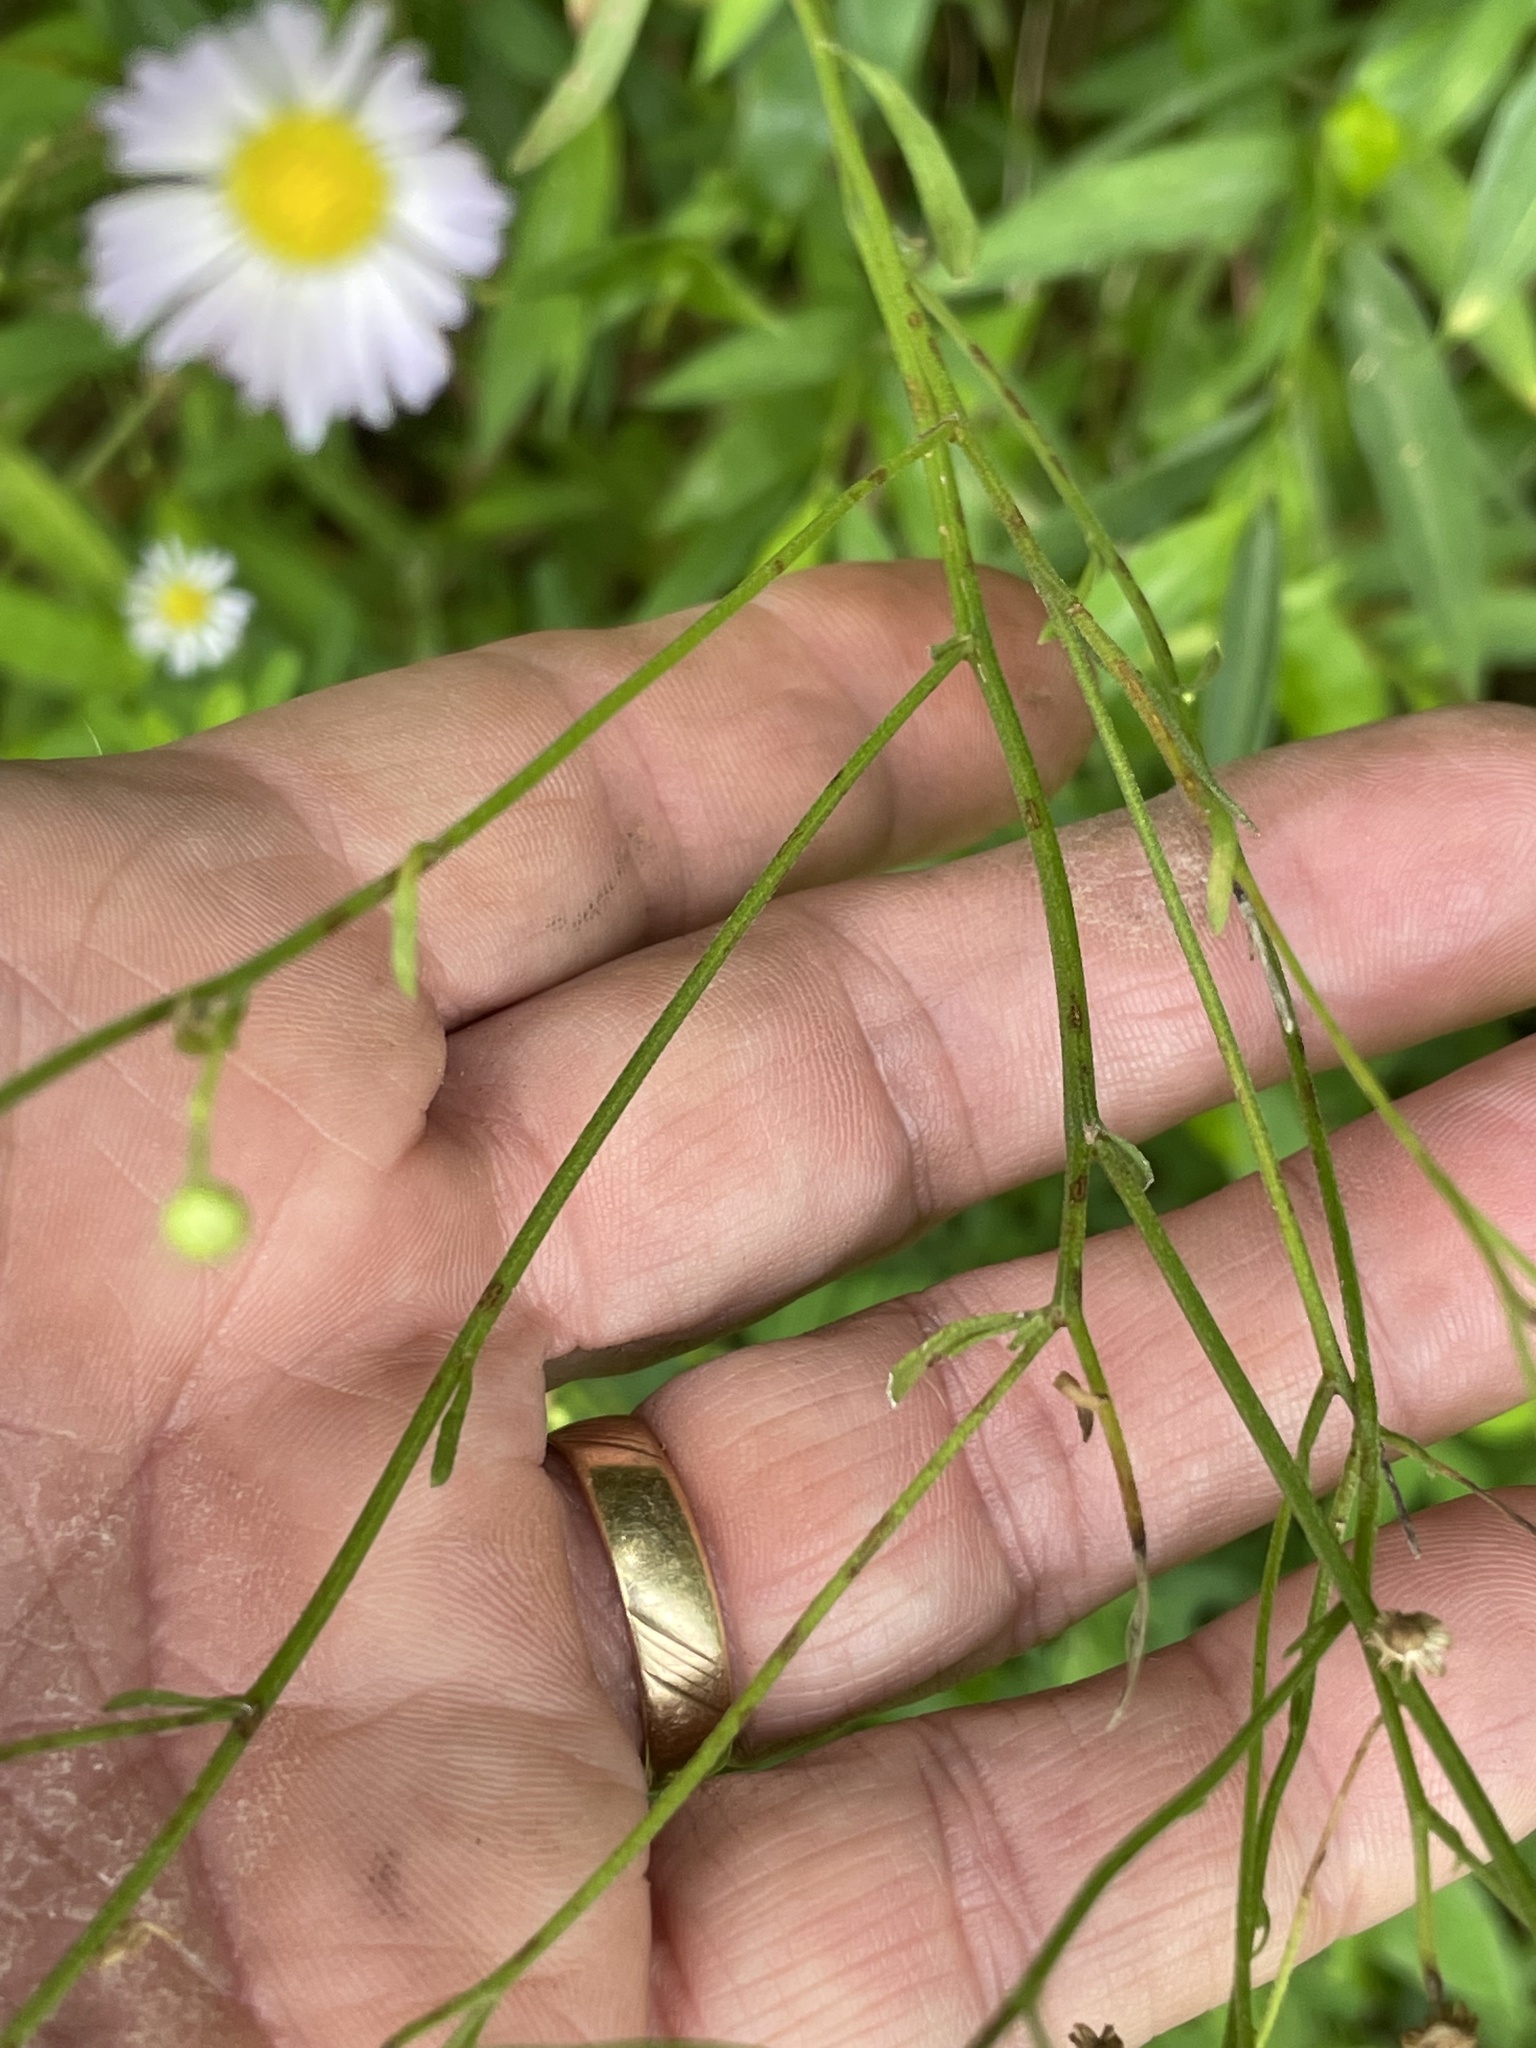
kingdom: Plantae
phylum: Tracheophyta
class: Magnoliopsida
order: Asterales
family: Asteraceae
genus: Erigeron
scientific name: Erigeron strigosus
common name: Common eastern fleabane
